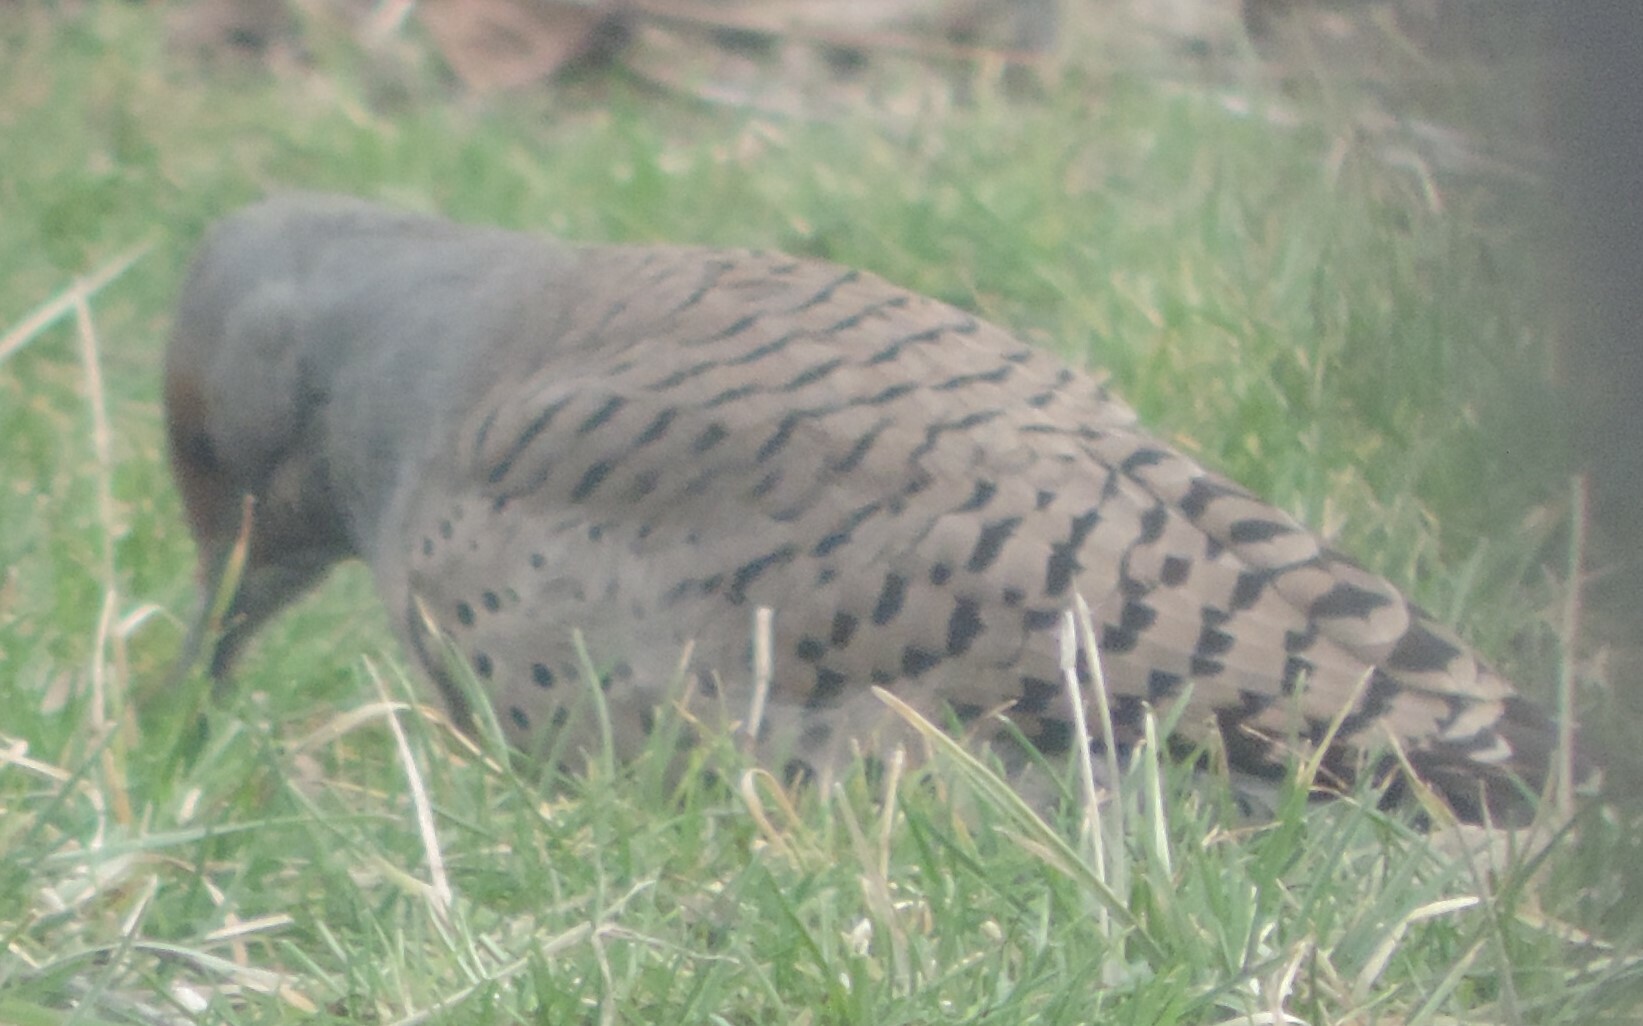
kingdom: Animalia
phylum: Chordata
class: Aves
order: Piciformes
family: Picidae
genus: Colaptes
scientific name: Colaptes auratus
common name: Northern flicker
